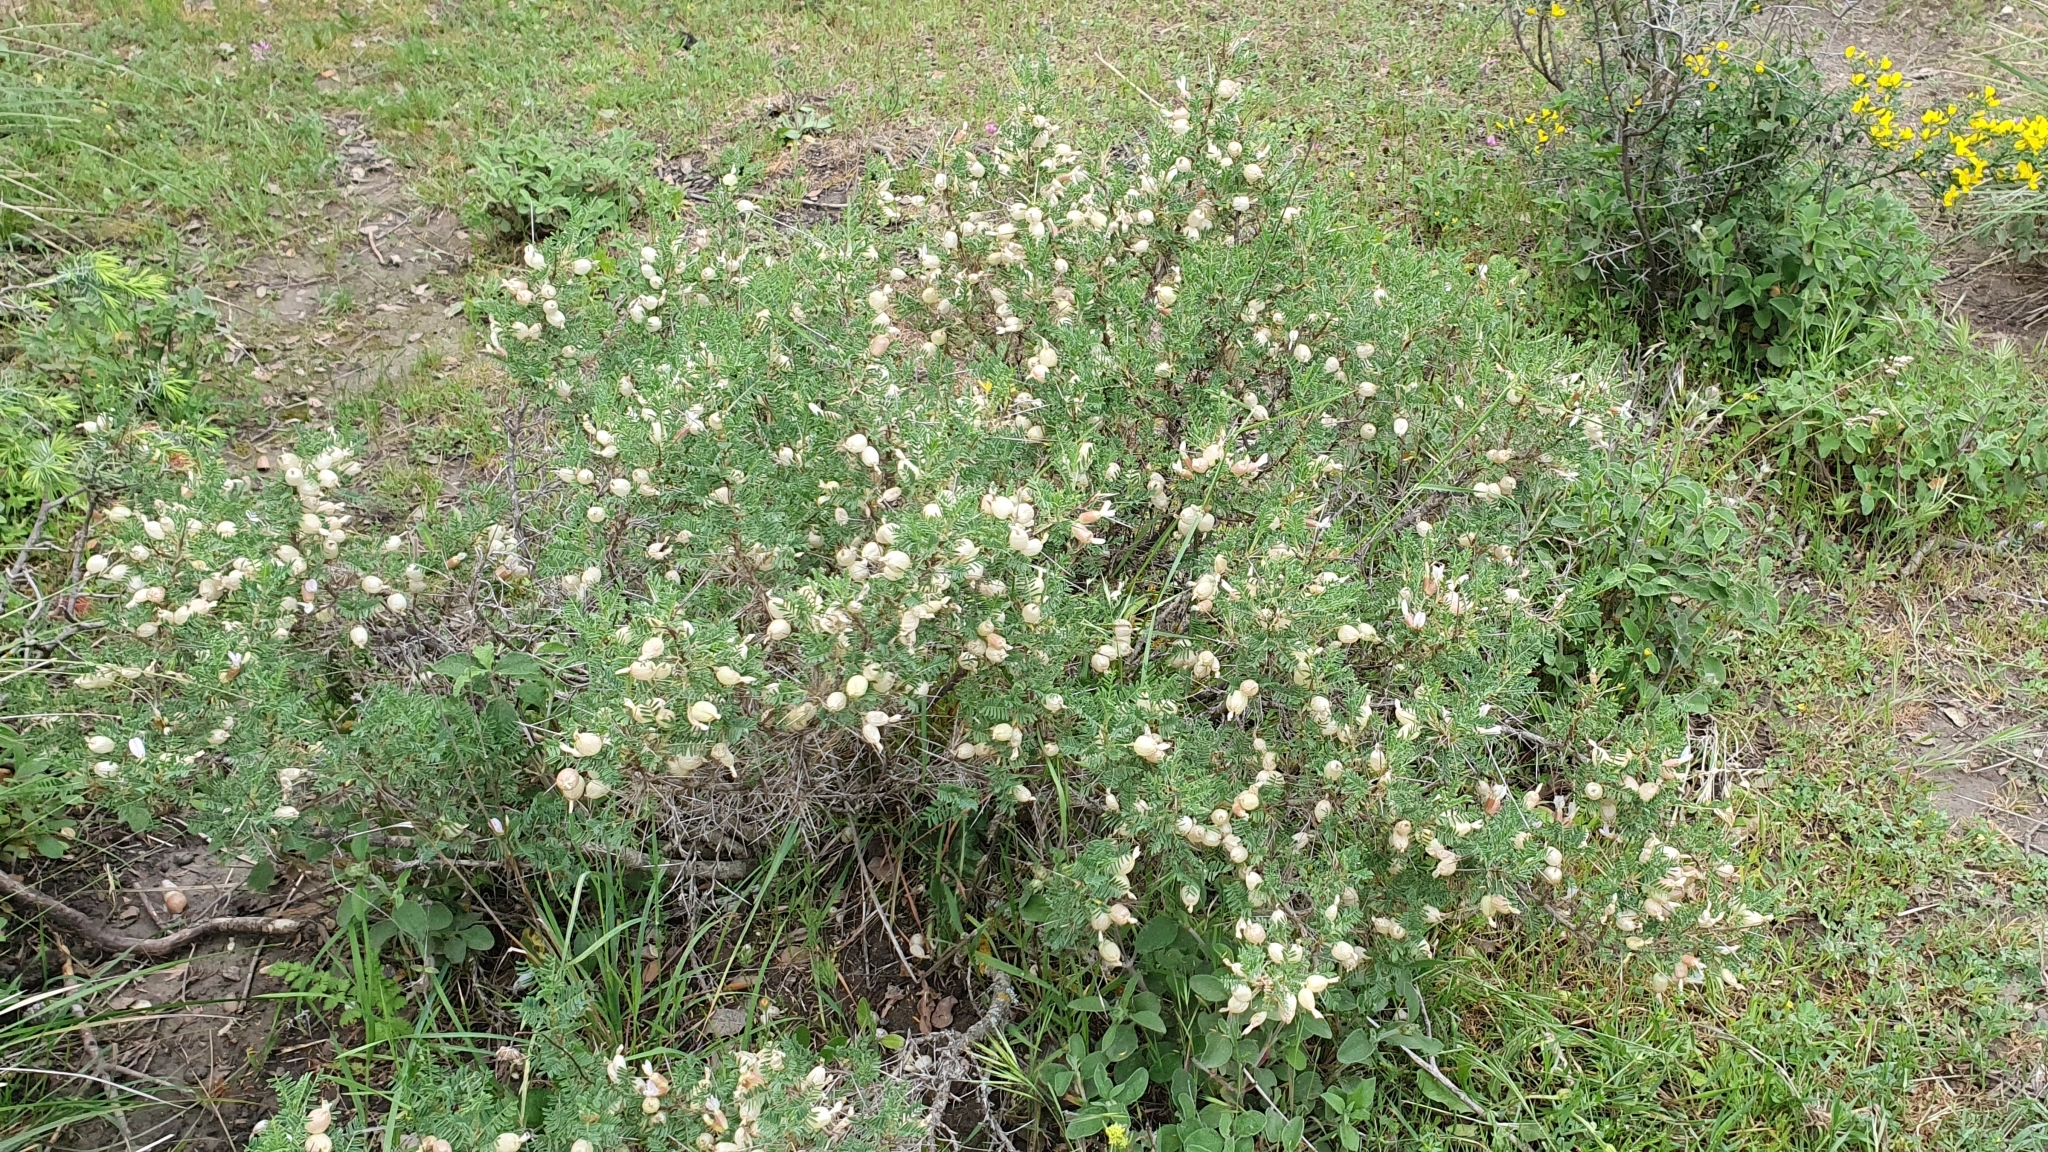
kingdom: Plantae
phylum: Tracheophyta
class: Magnoliopsida
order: Fabales
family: Fabaceae
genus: Astragalus
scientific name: Astragalus armatus
